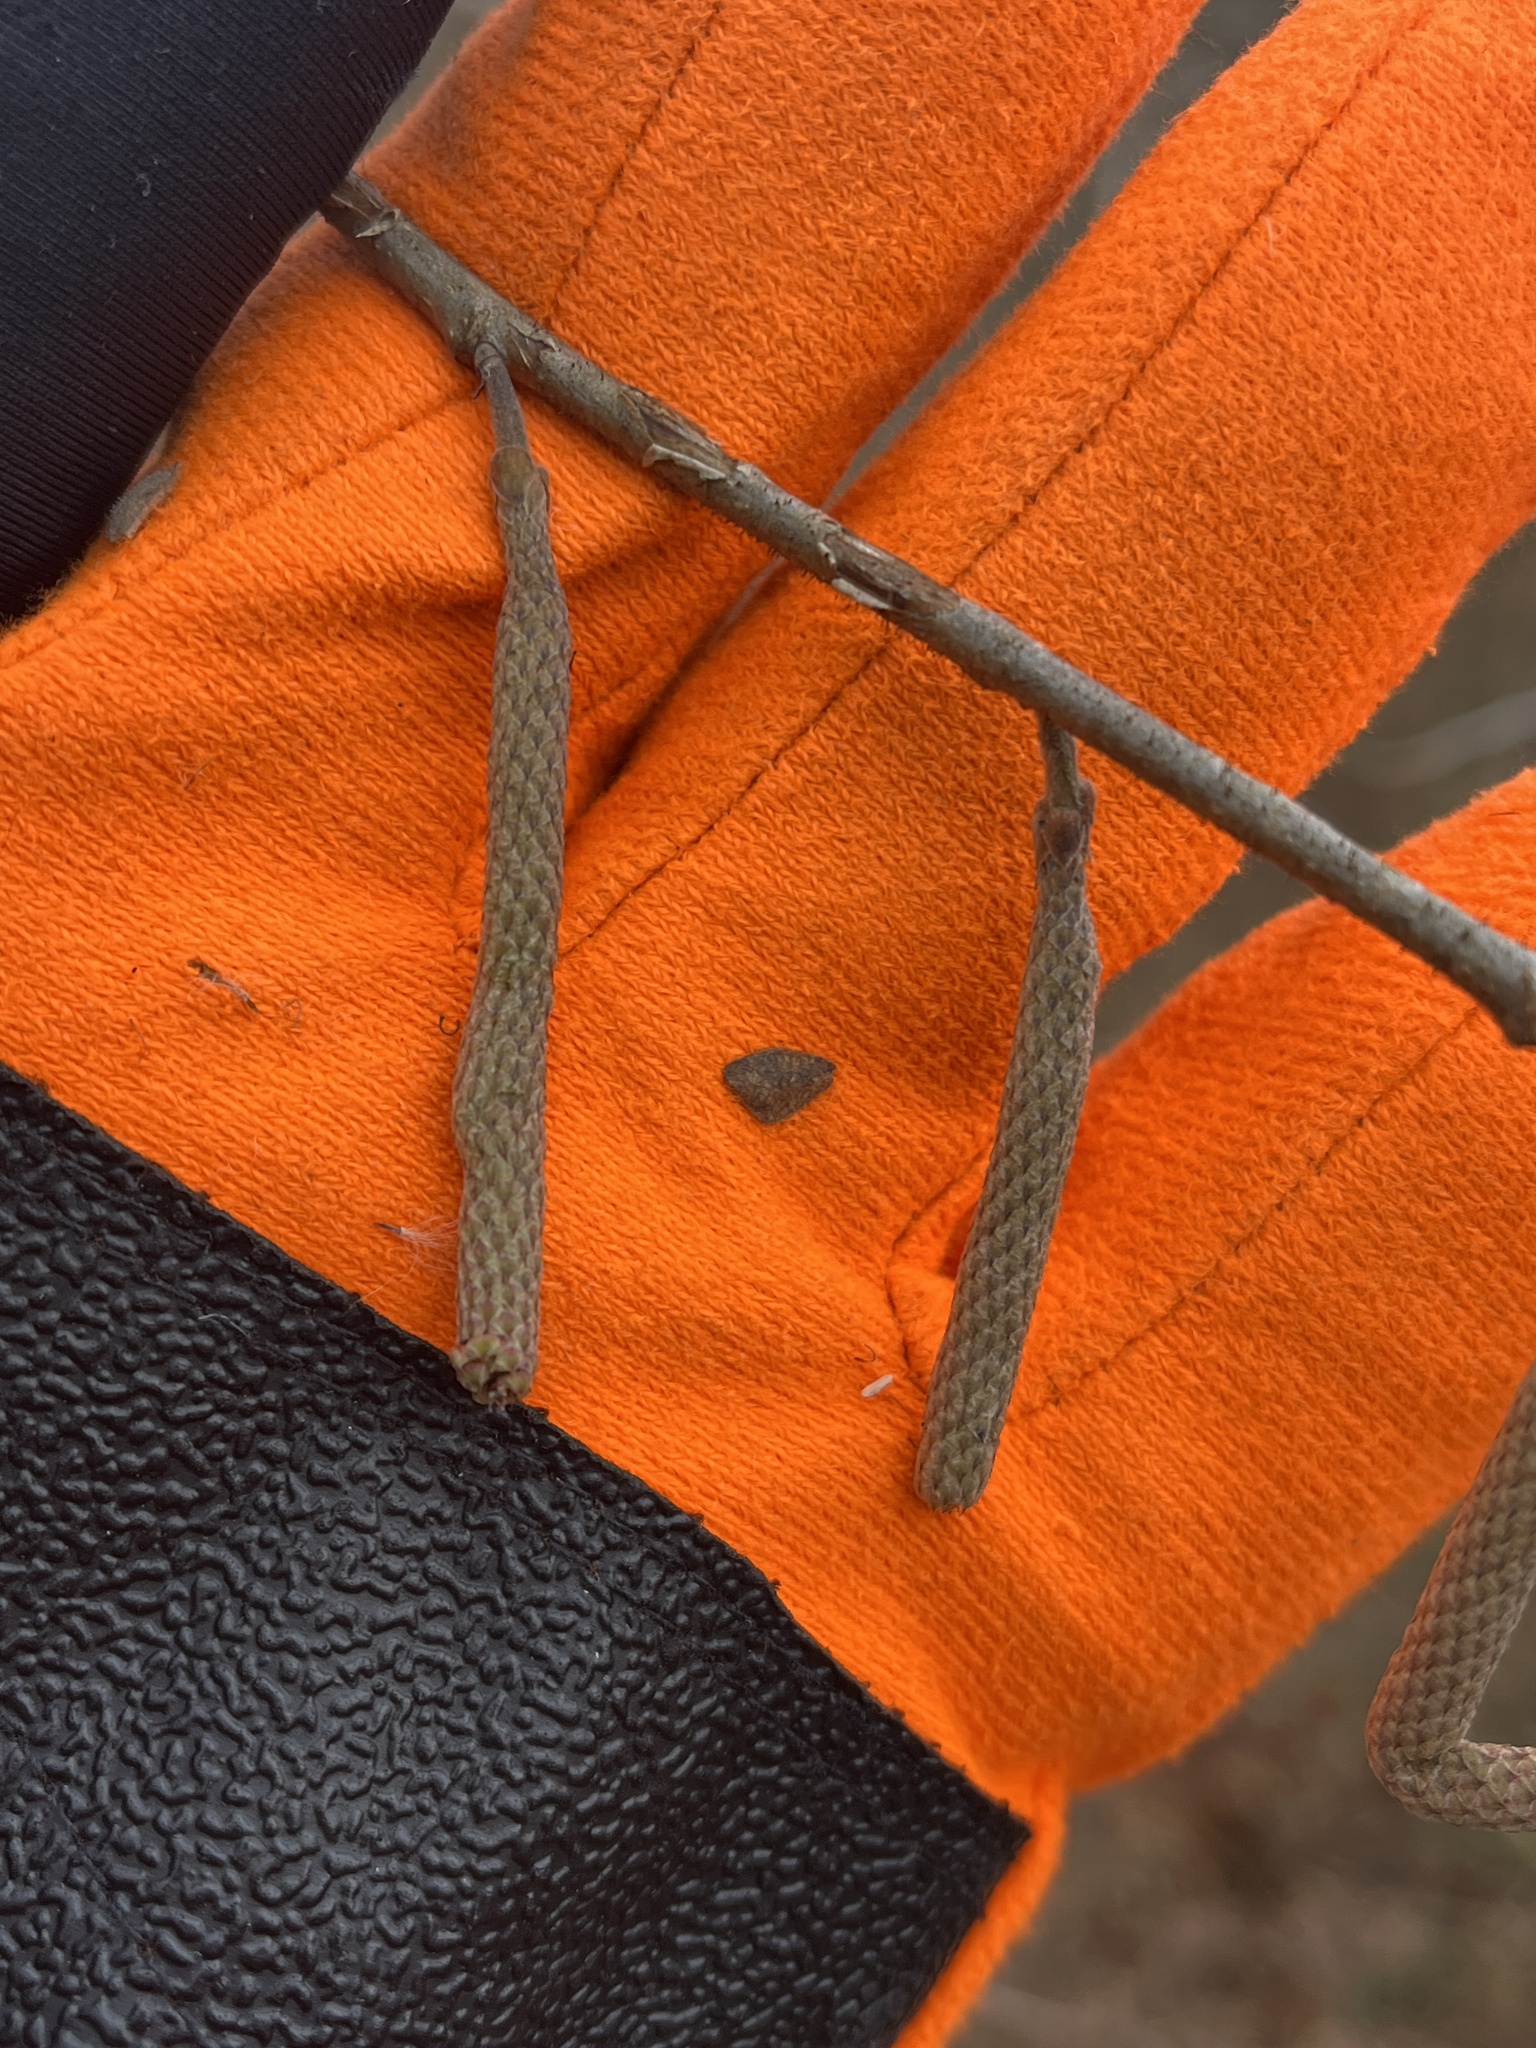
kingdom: Plantae
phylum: Tracheophyta
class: Magnoliopsida
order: Fagales
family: Betulaceae
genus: Corylus
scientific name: Corylus americana
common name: American hazel
